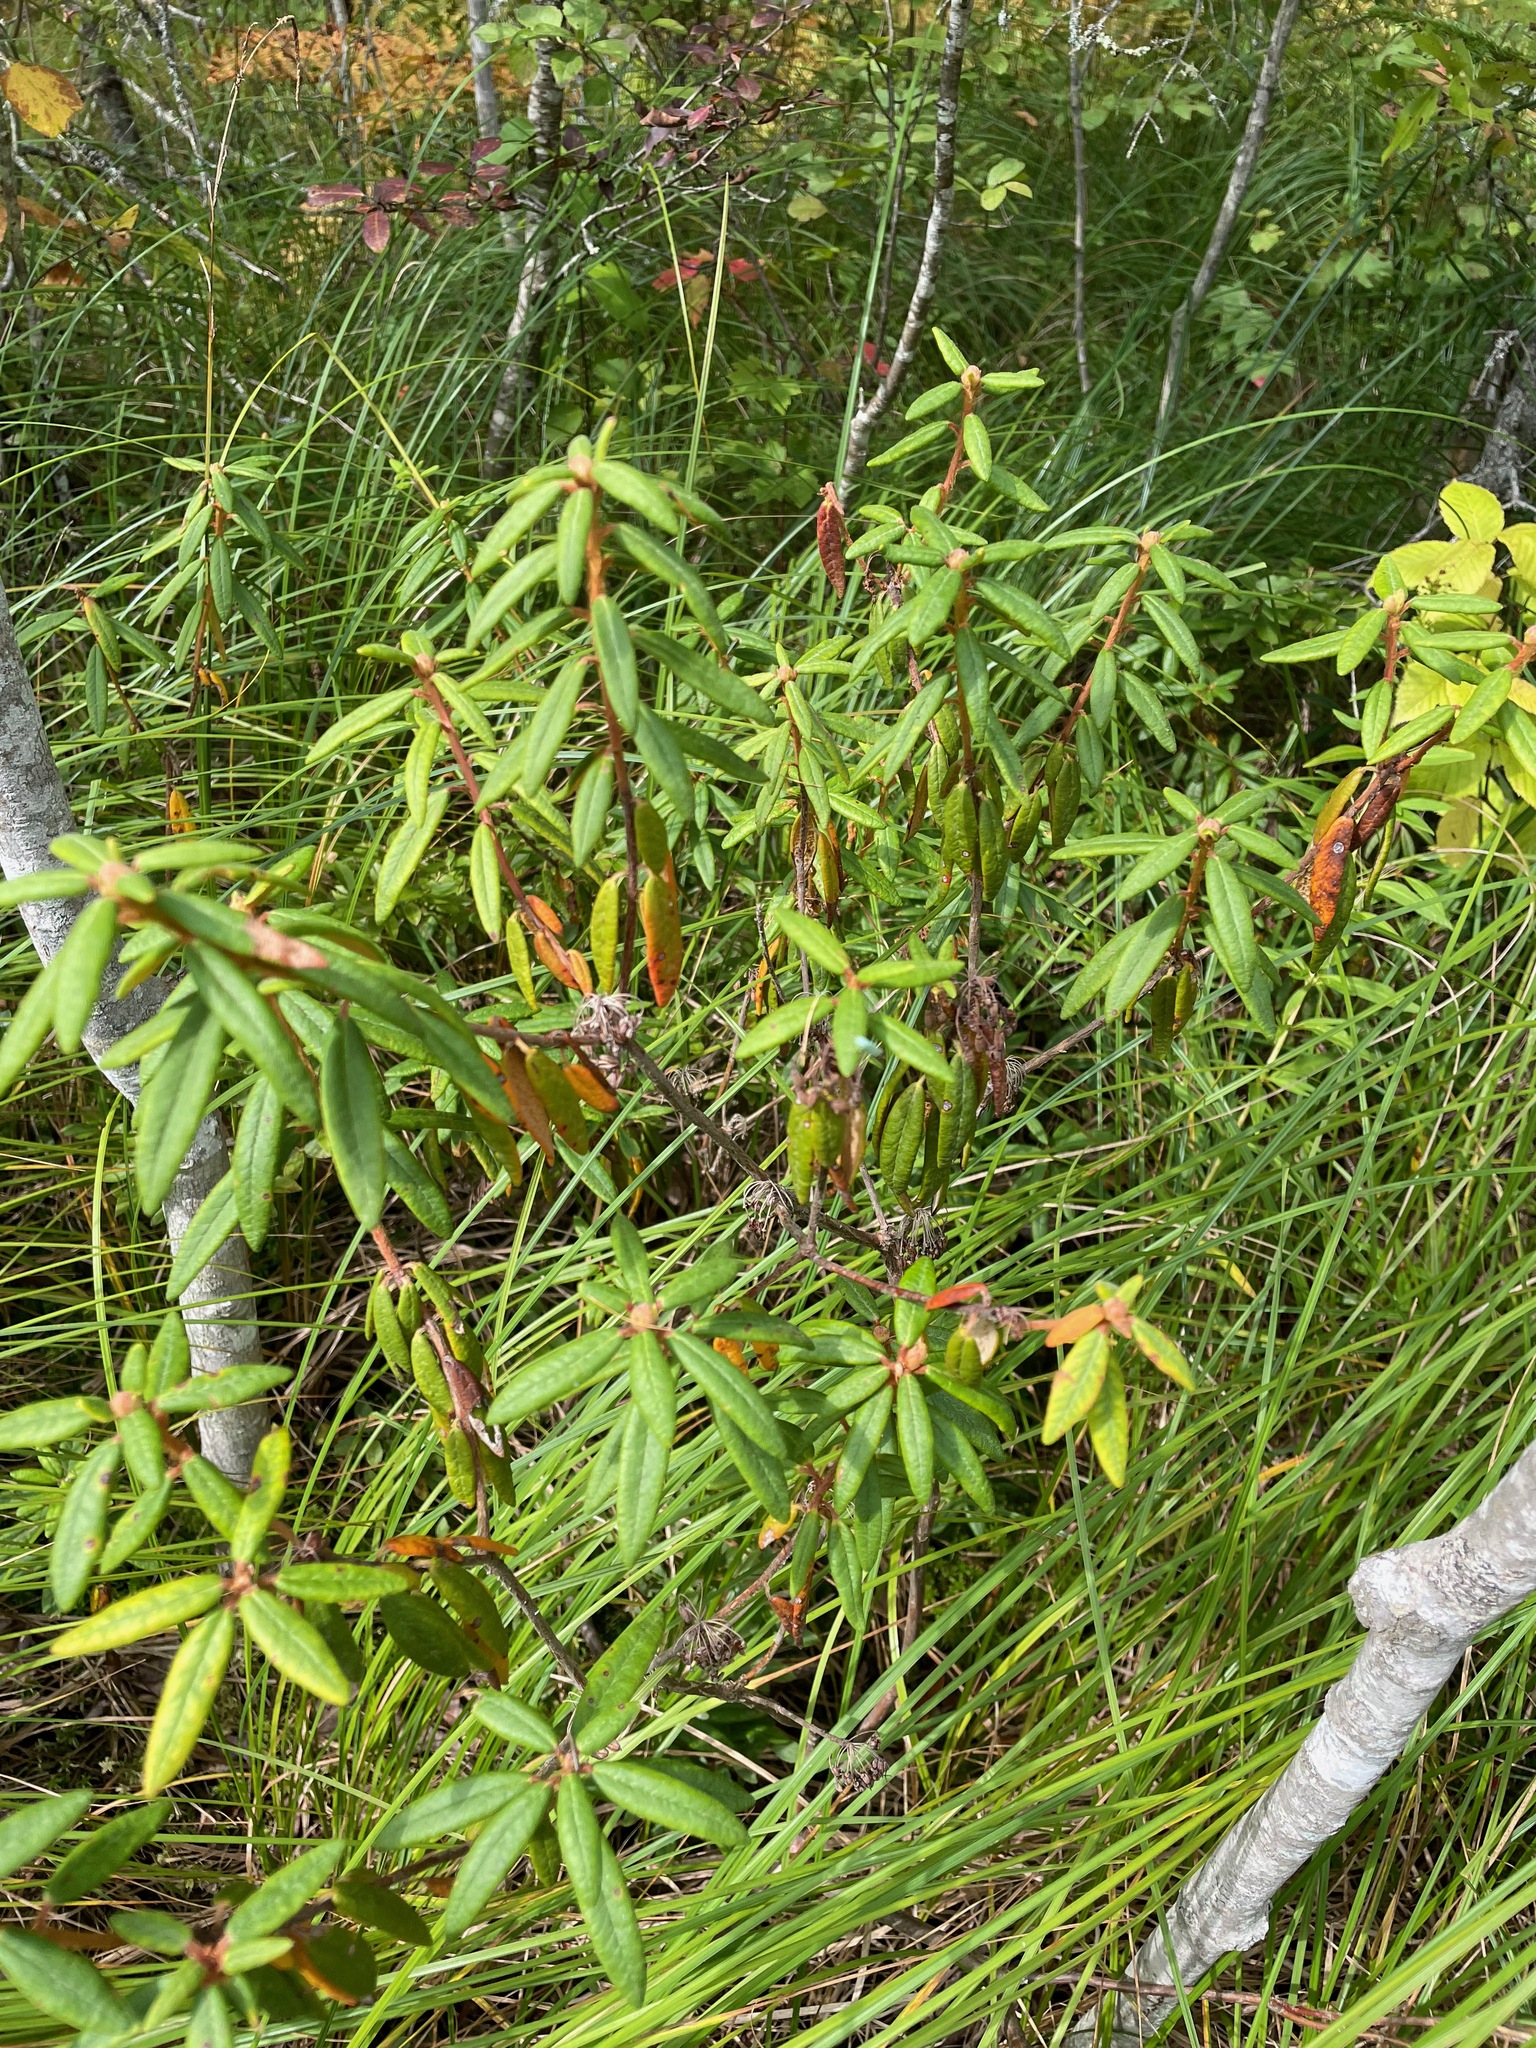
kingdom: Plantae
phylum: Tracheophyta
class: Magnoliopsida
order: Ericales
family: Ericaceae
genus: Rhododendron
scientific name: Rhododendron groenlandicum
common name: Bog labrador tea
